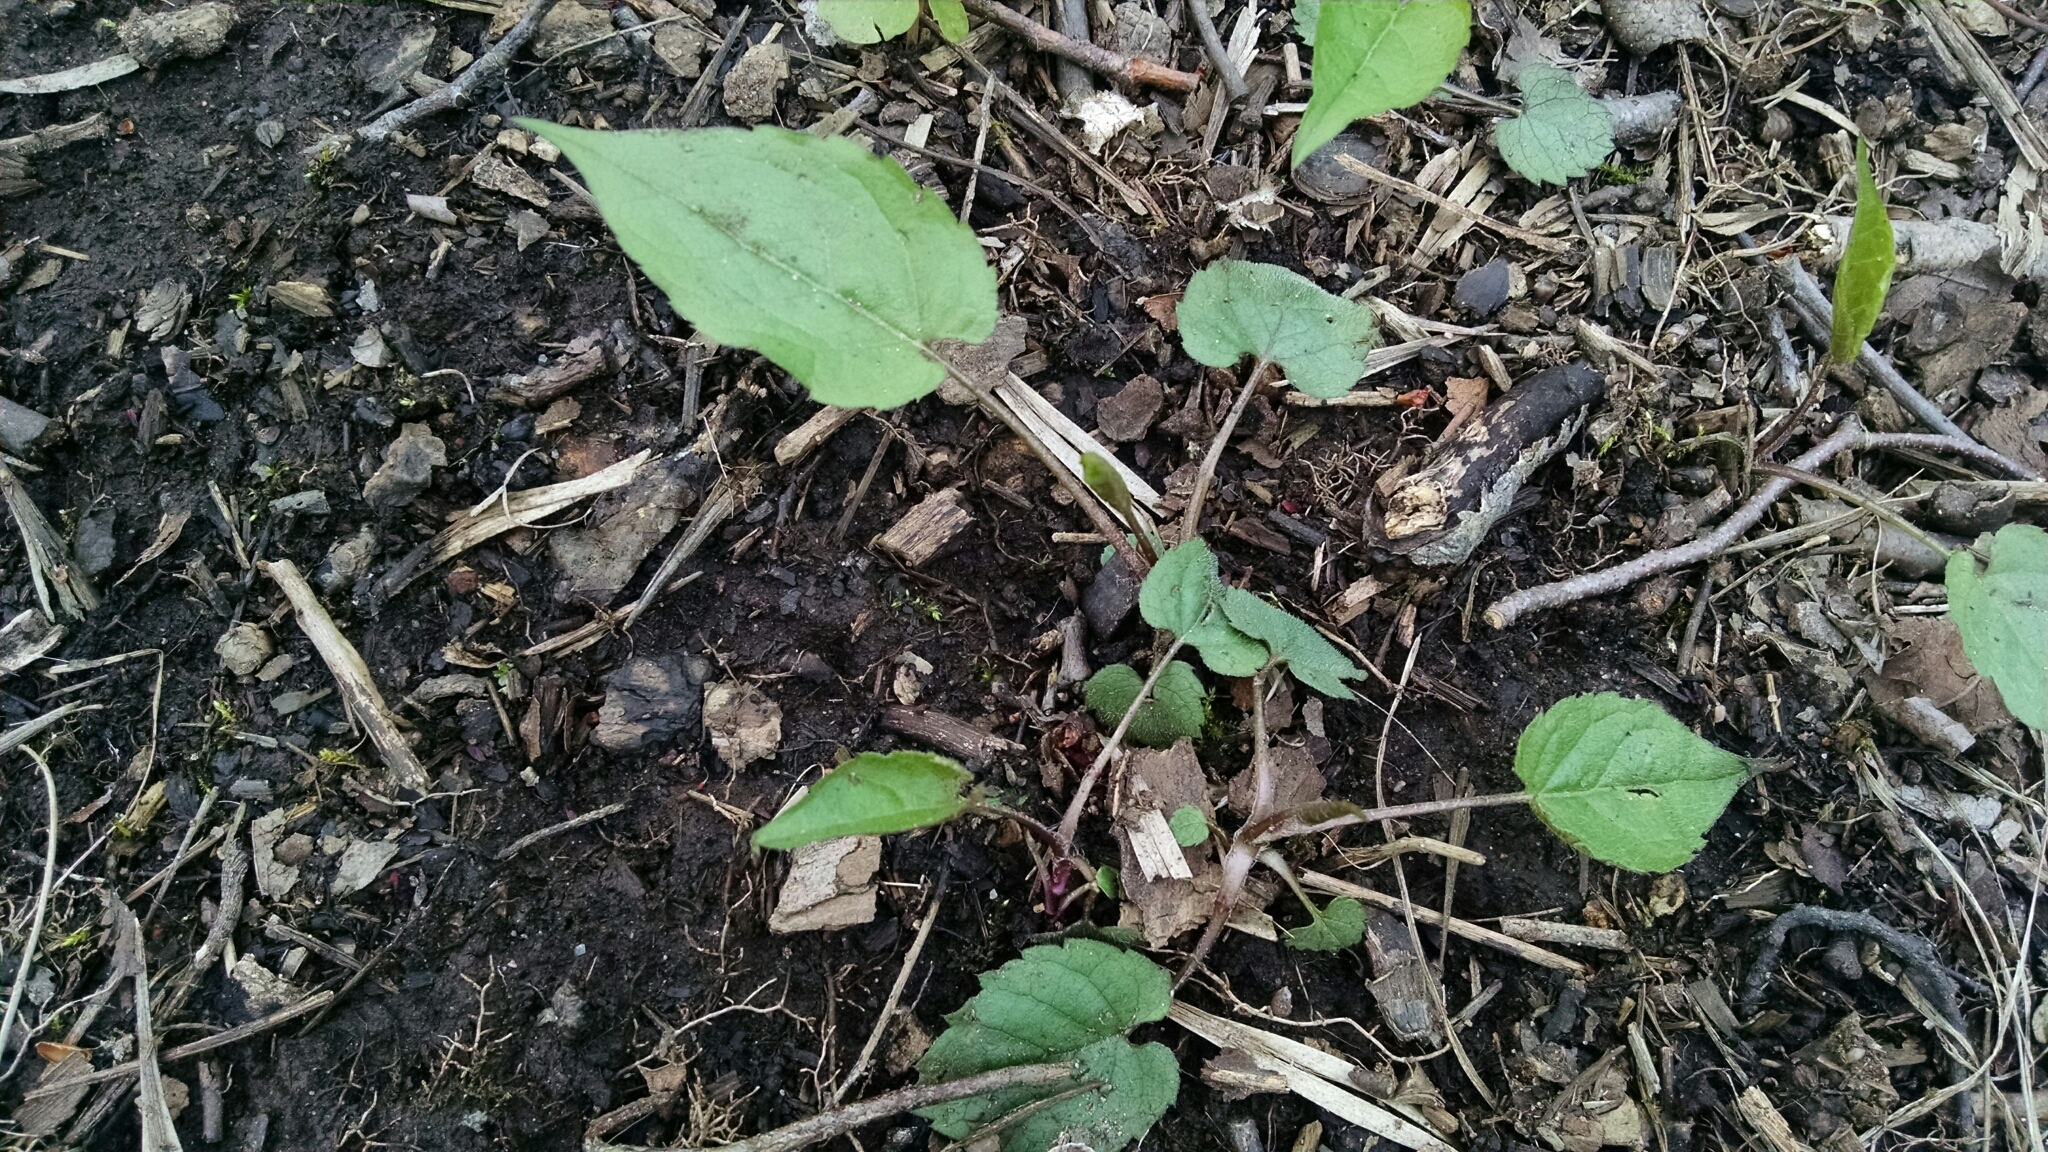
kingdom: Plantae
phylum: Tracheophyta
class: Magnoliopsida
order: Asterales
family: Asteraceae
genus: Eurybia
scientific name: Eurybia divaricata
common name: White wood aster
